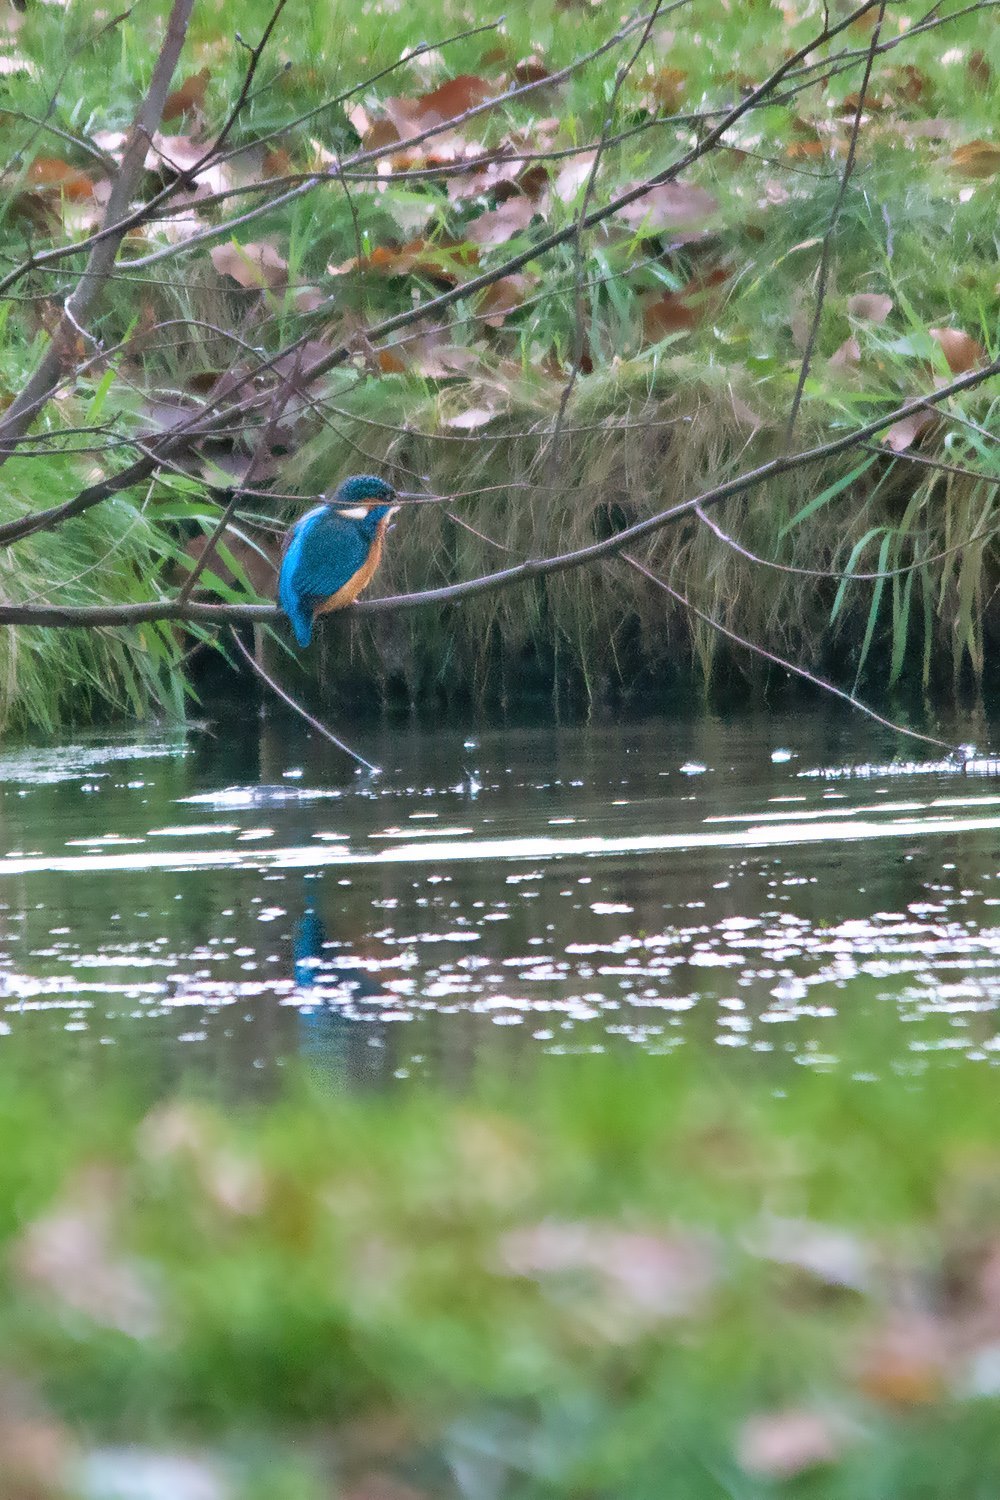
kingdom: Animalia
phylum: Chordata
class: Aves
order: Coraciiformes
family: Alcedinidae
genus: Alcedo
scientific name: Alcedo atthis
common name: Common kingfisher
